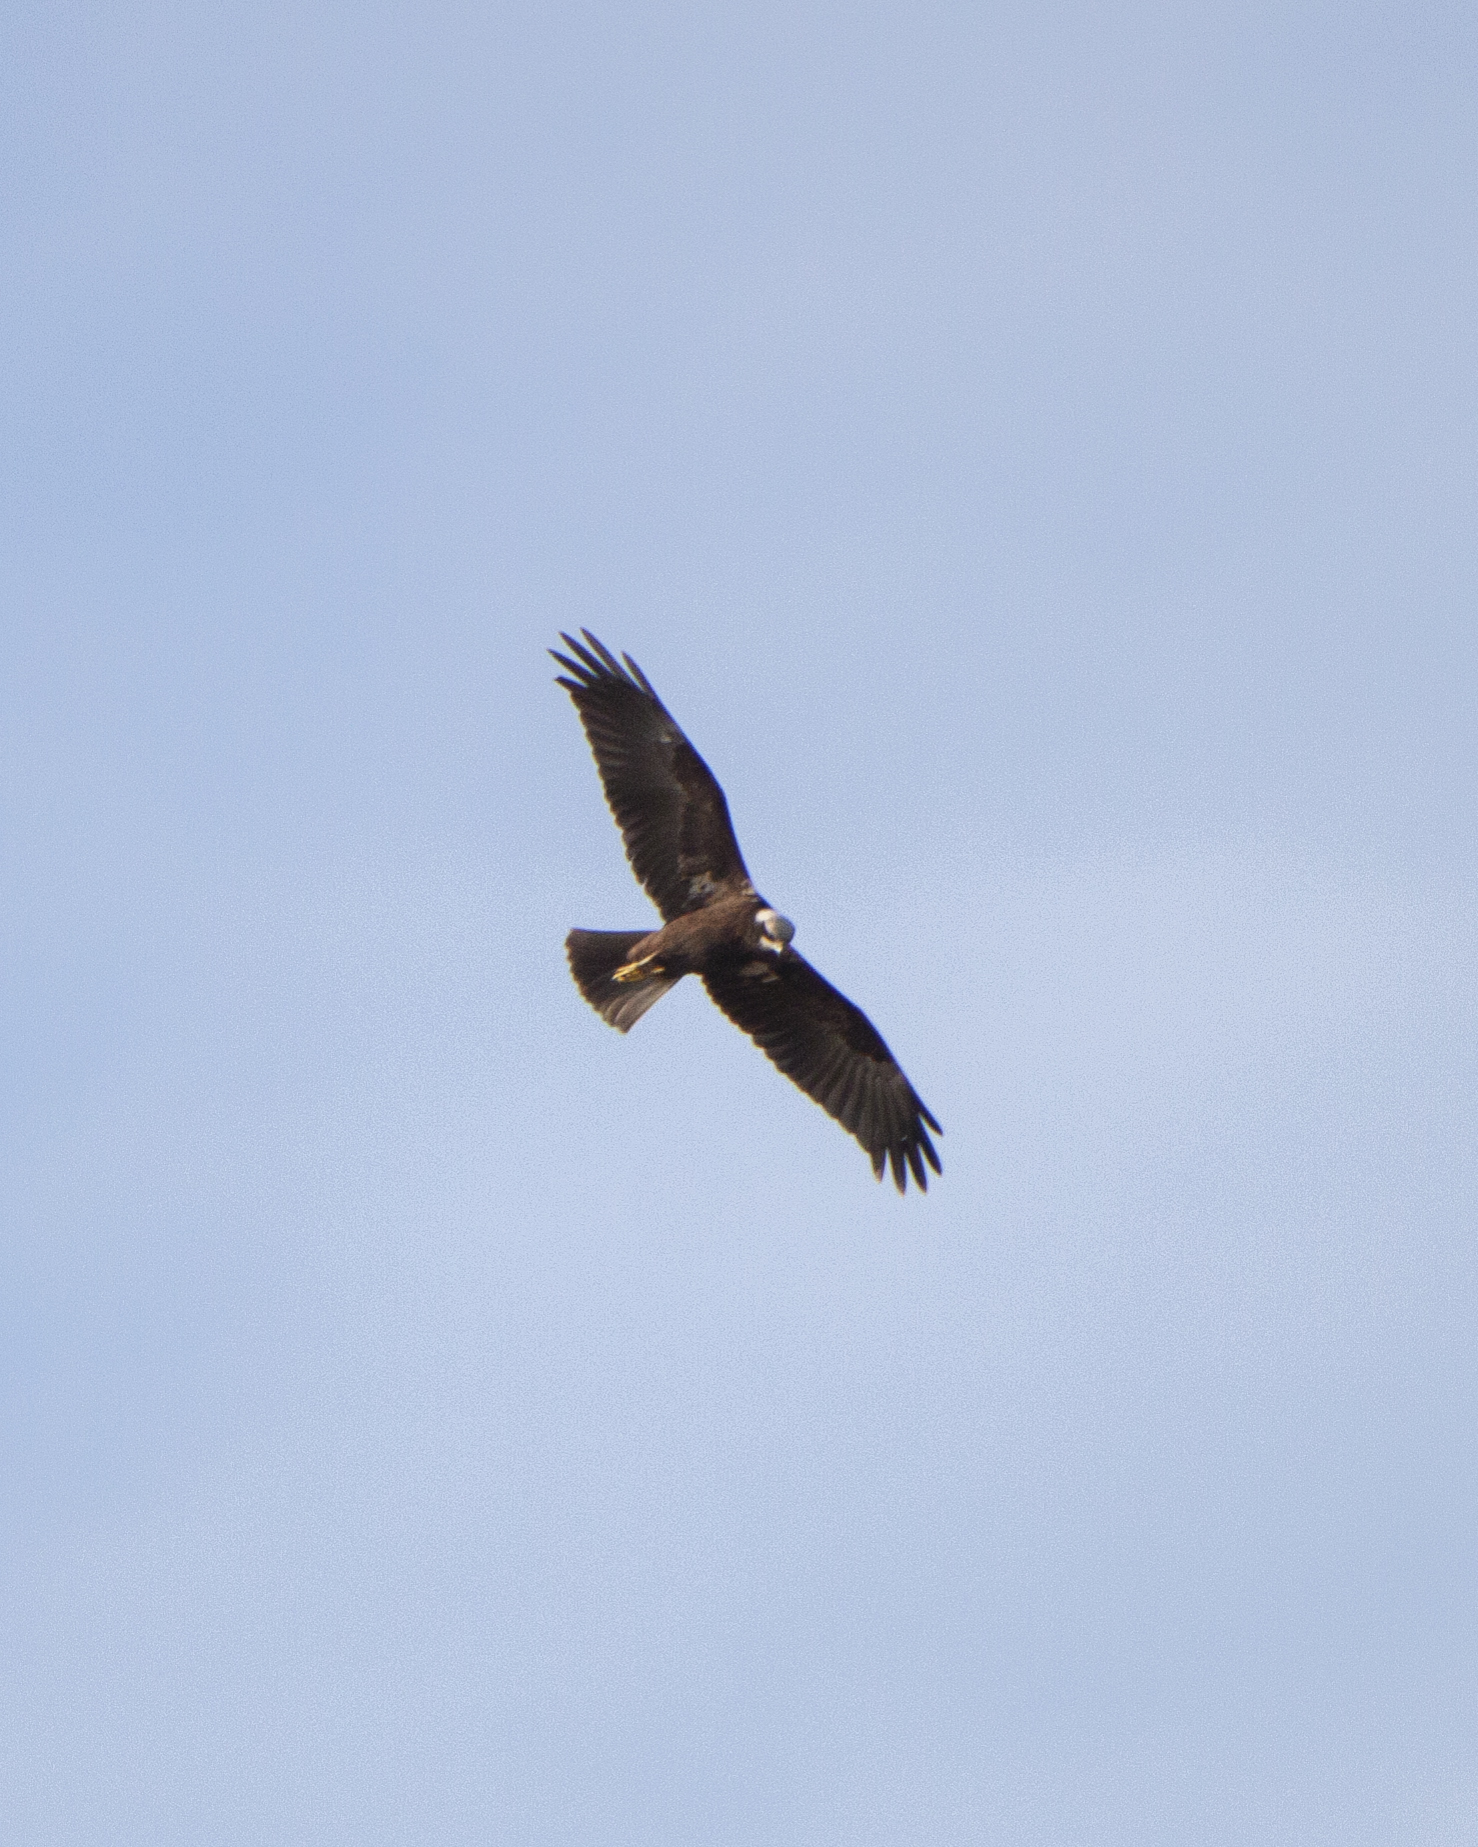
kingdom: Animalia
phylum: Chordata
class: Aves
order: Accipitriformes
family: Accipitridae
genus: Circus
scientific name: Circus aeruginosus
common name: Western marsh harrier
